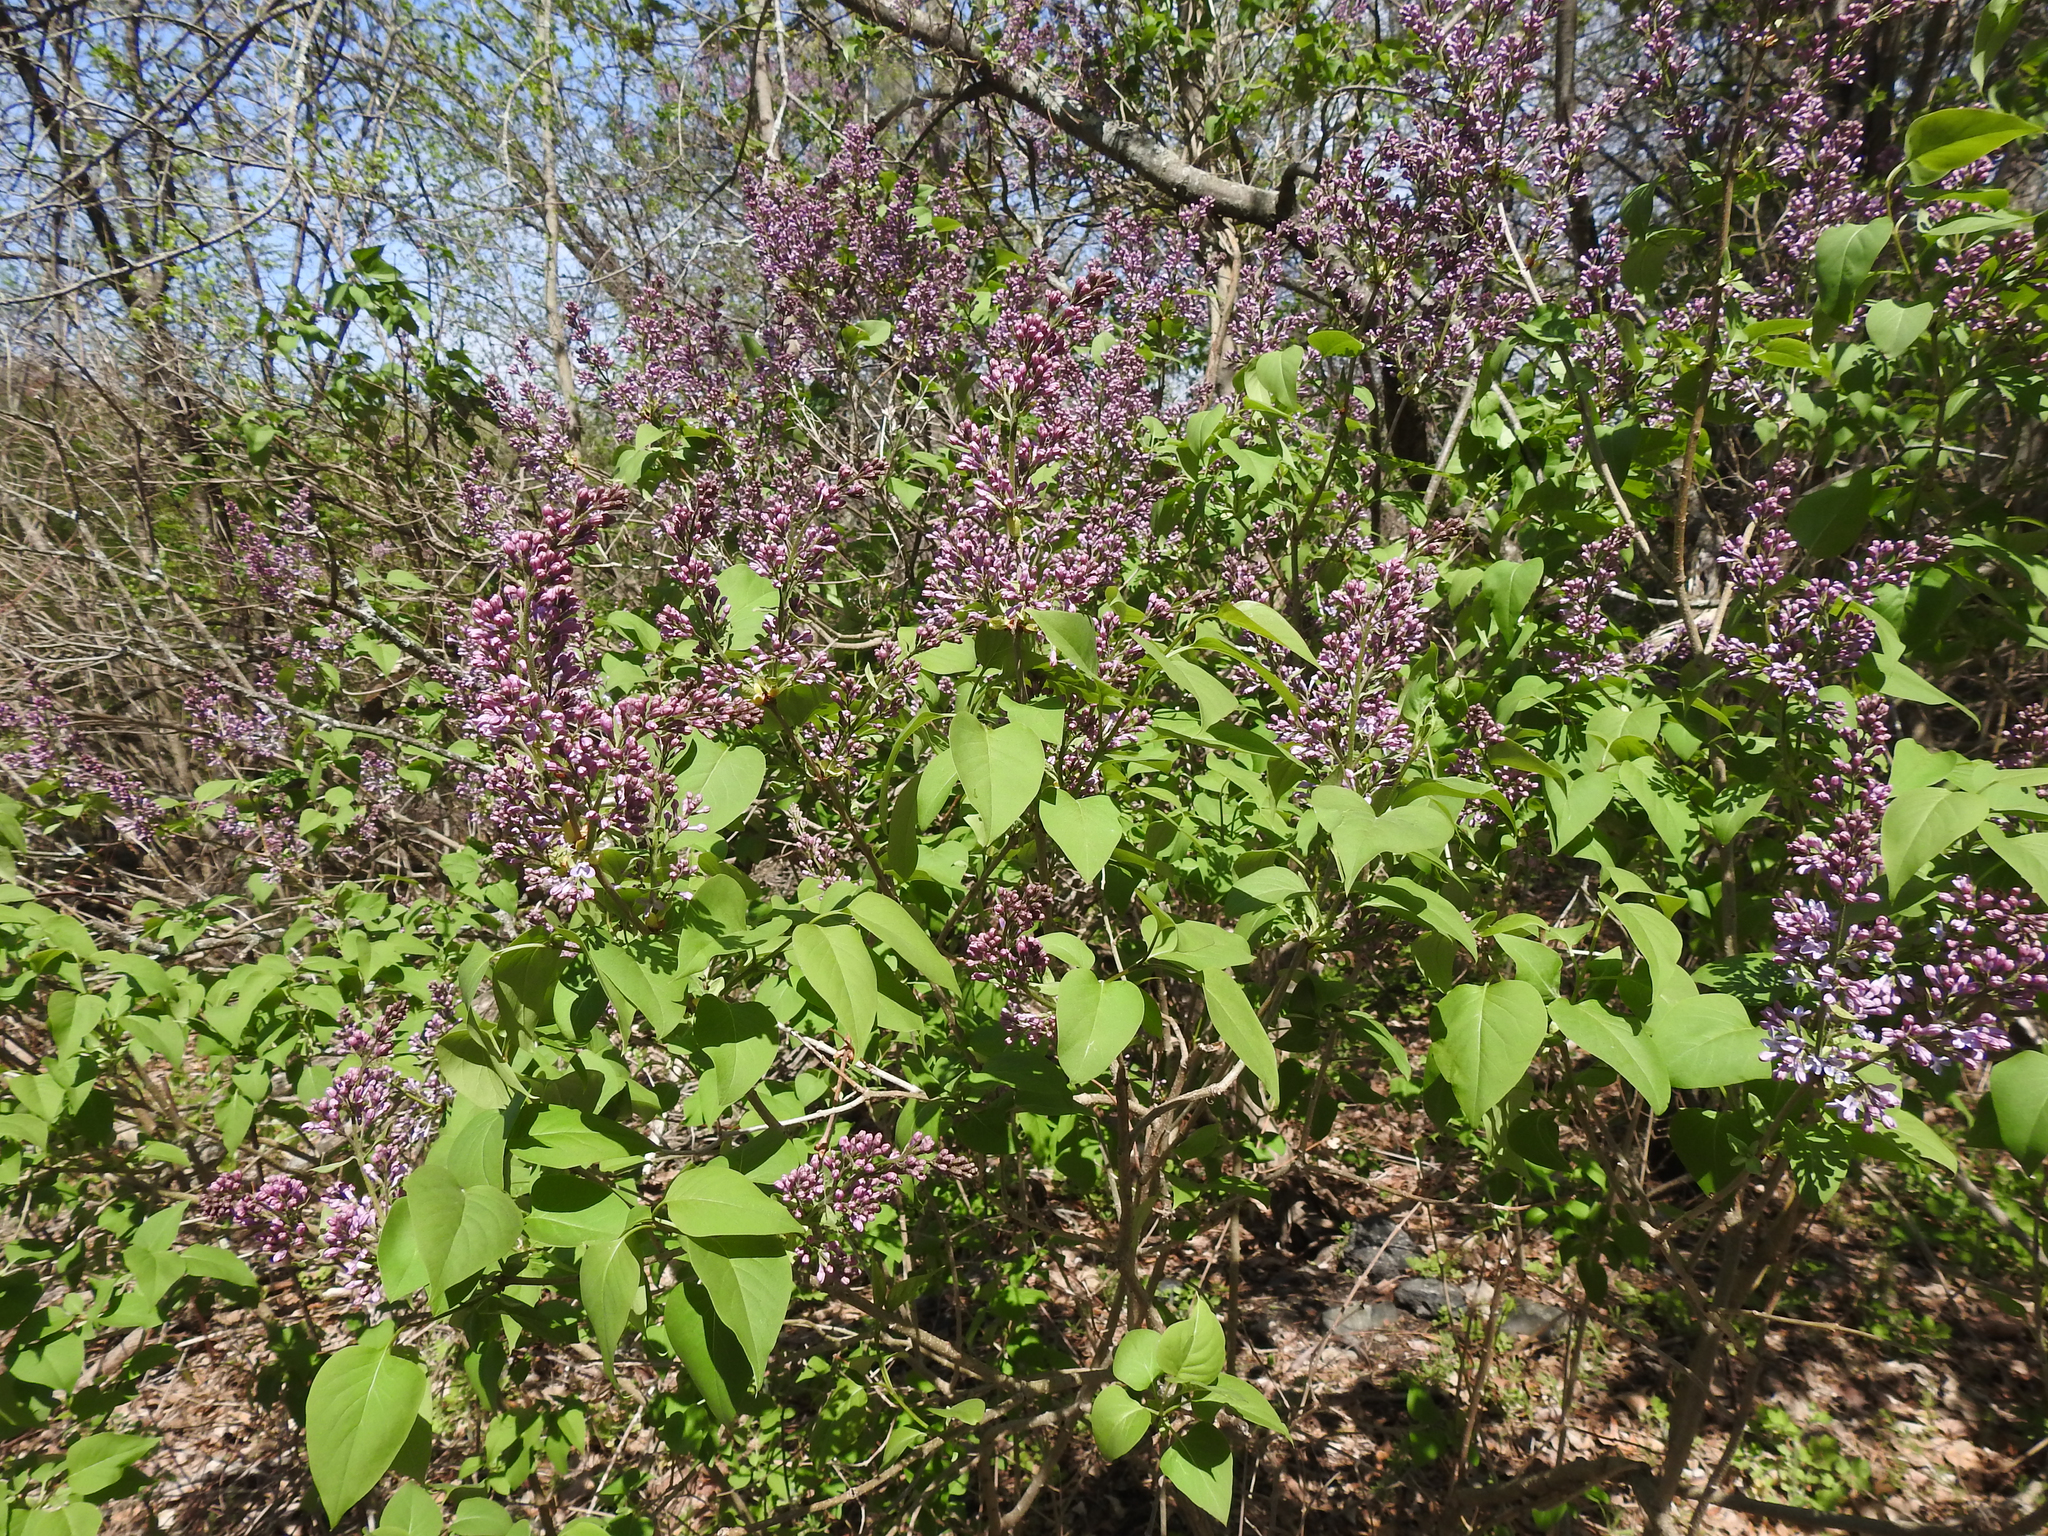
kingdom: Plantae
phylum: Tracheophyta
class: Magnoliopsida
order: Lamiales
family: Oleaceae
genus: Syringa
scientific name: Syringa vulgaris
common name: Common lilac
